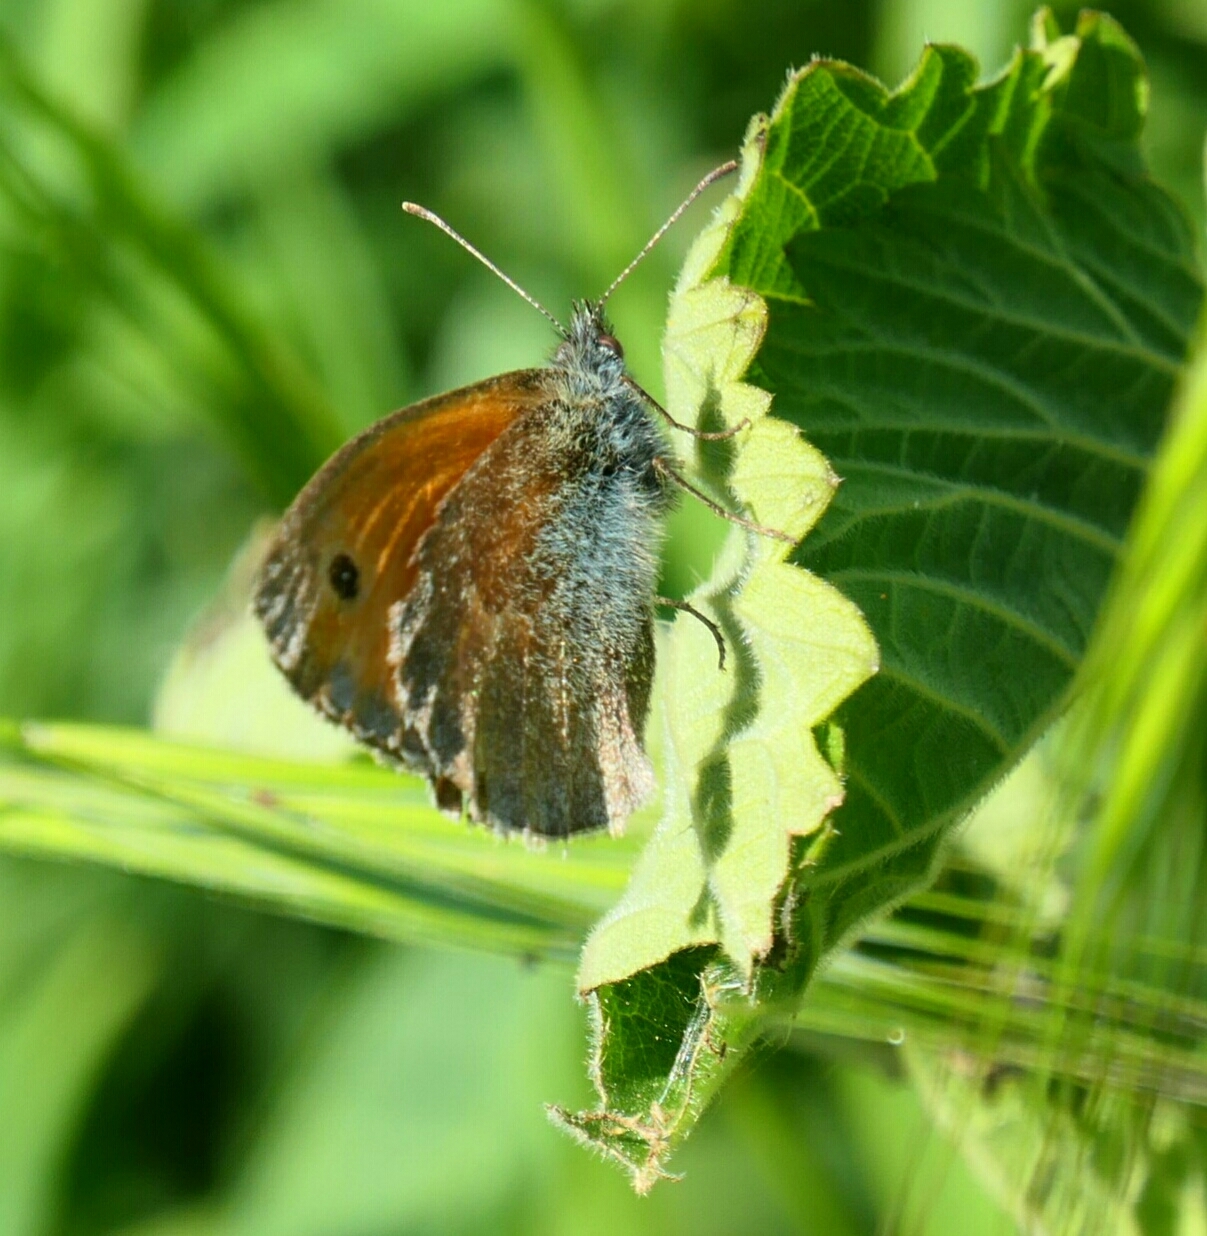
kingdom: Animalia
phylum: Arthropoda
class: Insecta
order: Lepidoptera
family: Nymphalidae
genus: Coenonympha
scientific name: Coenonympha pamphilus
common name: Small heath
